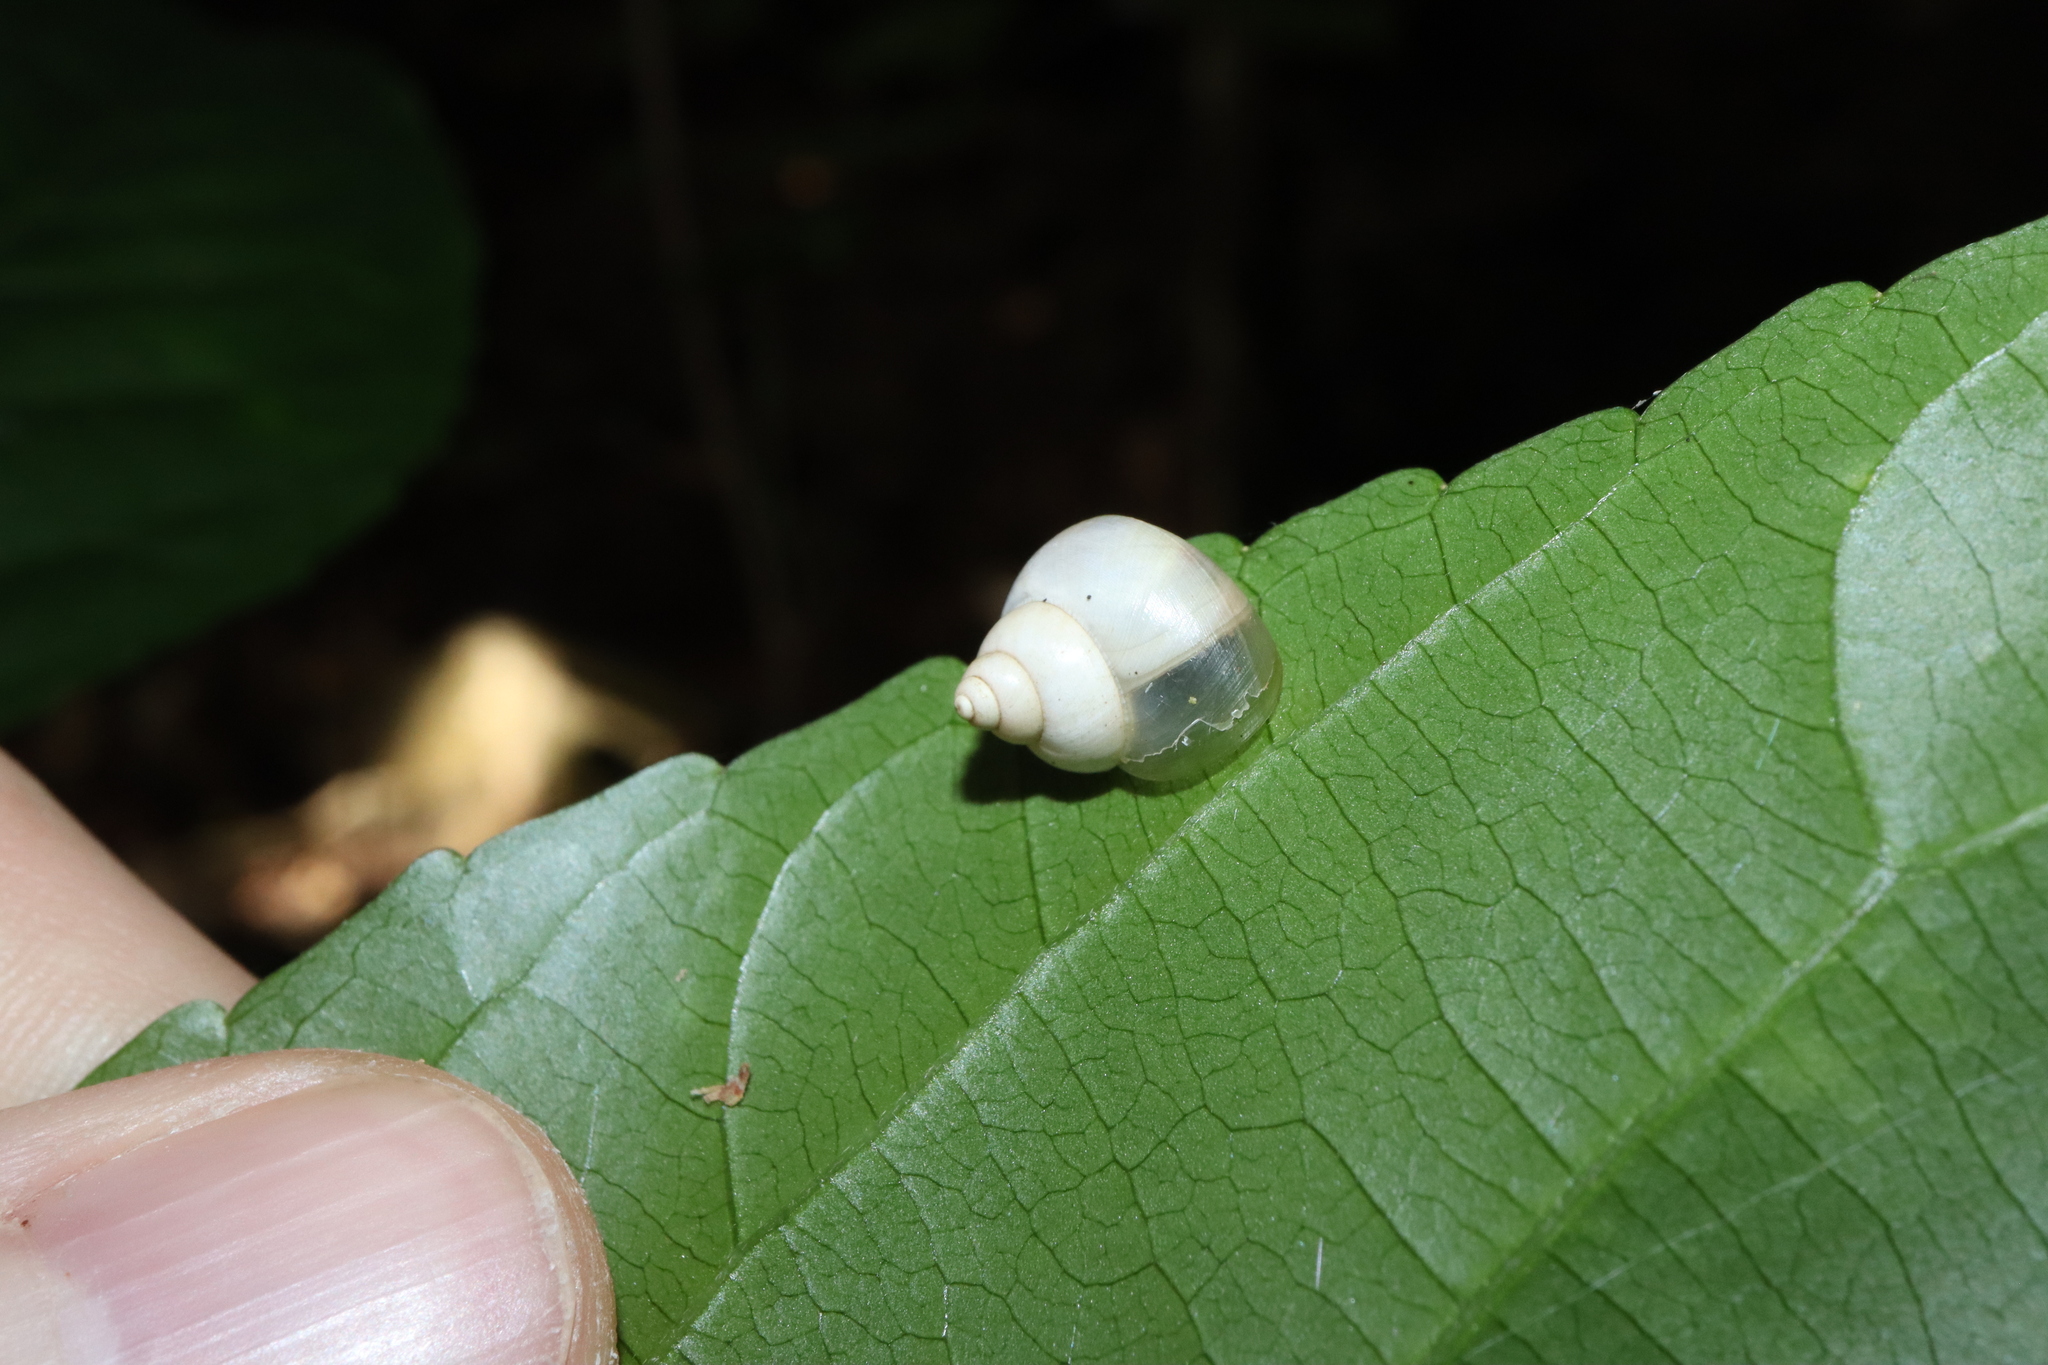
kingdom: Animalia
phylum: Mollusca
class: Gastropoda
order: Architaenioglossa
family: Cyclophoridae
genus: Leptopoma
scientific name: Leptopoma perlucidum
